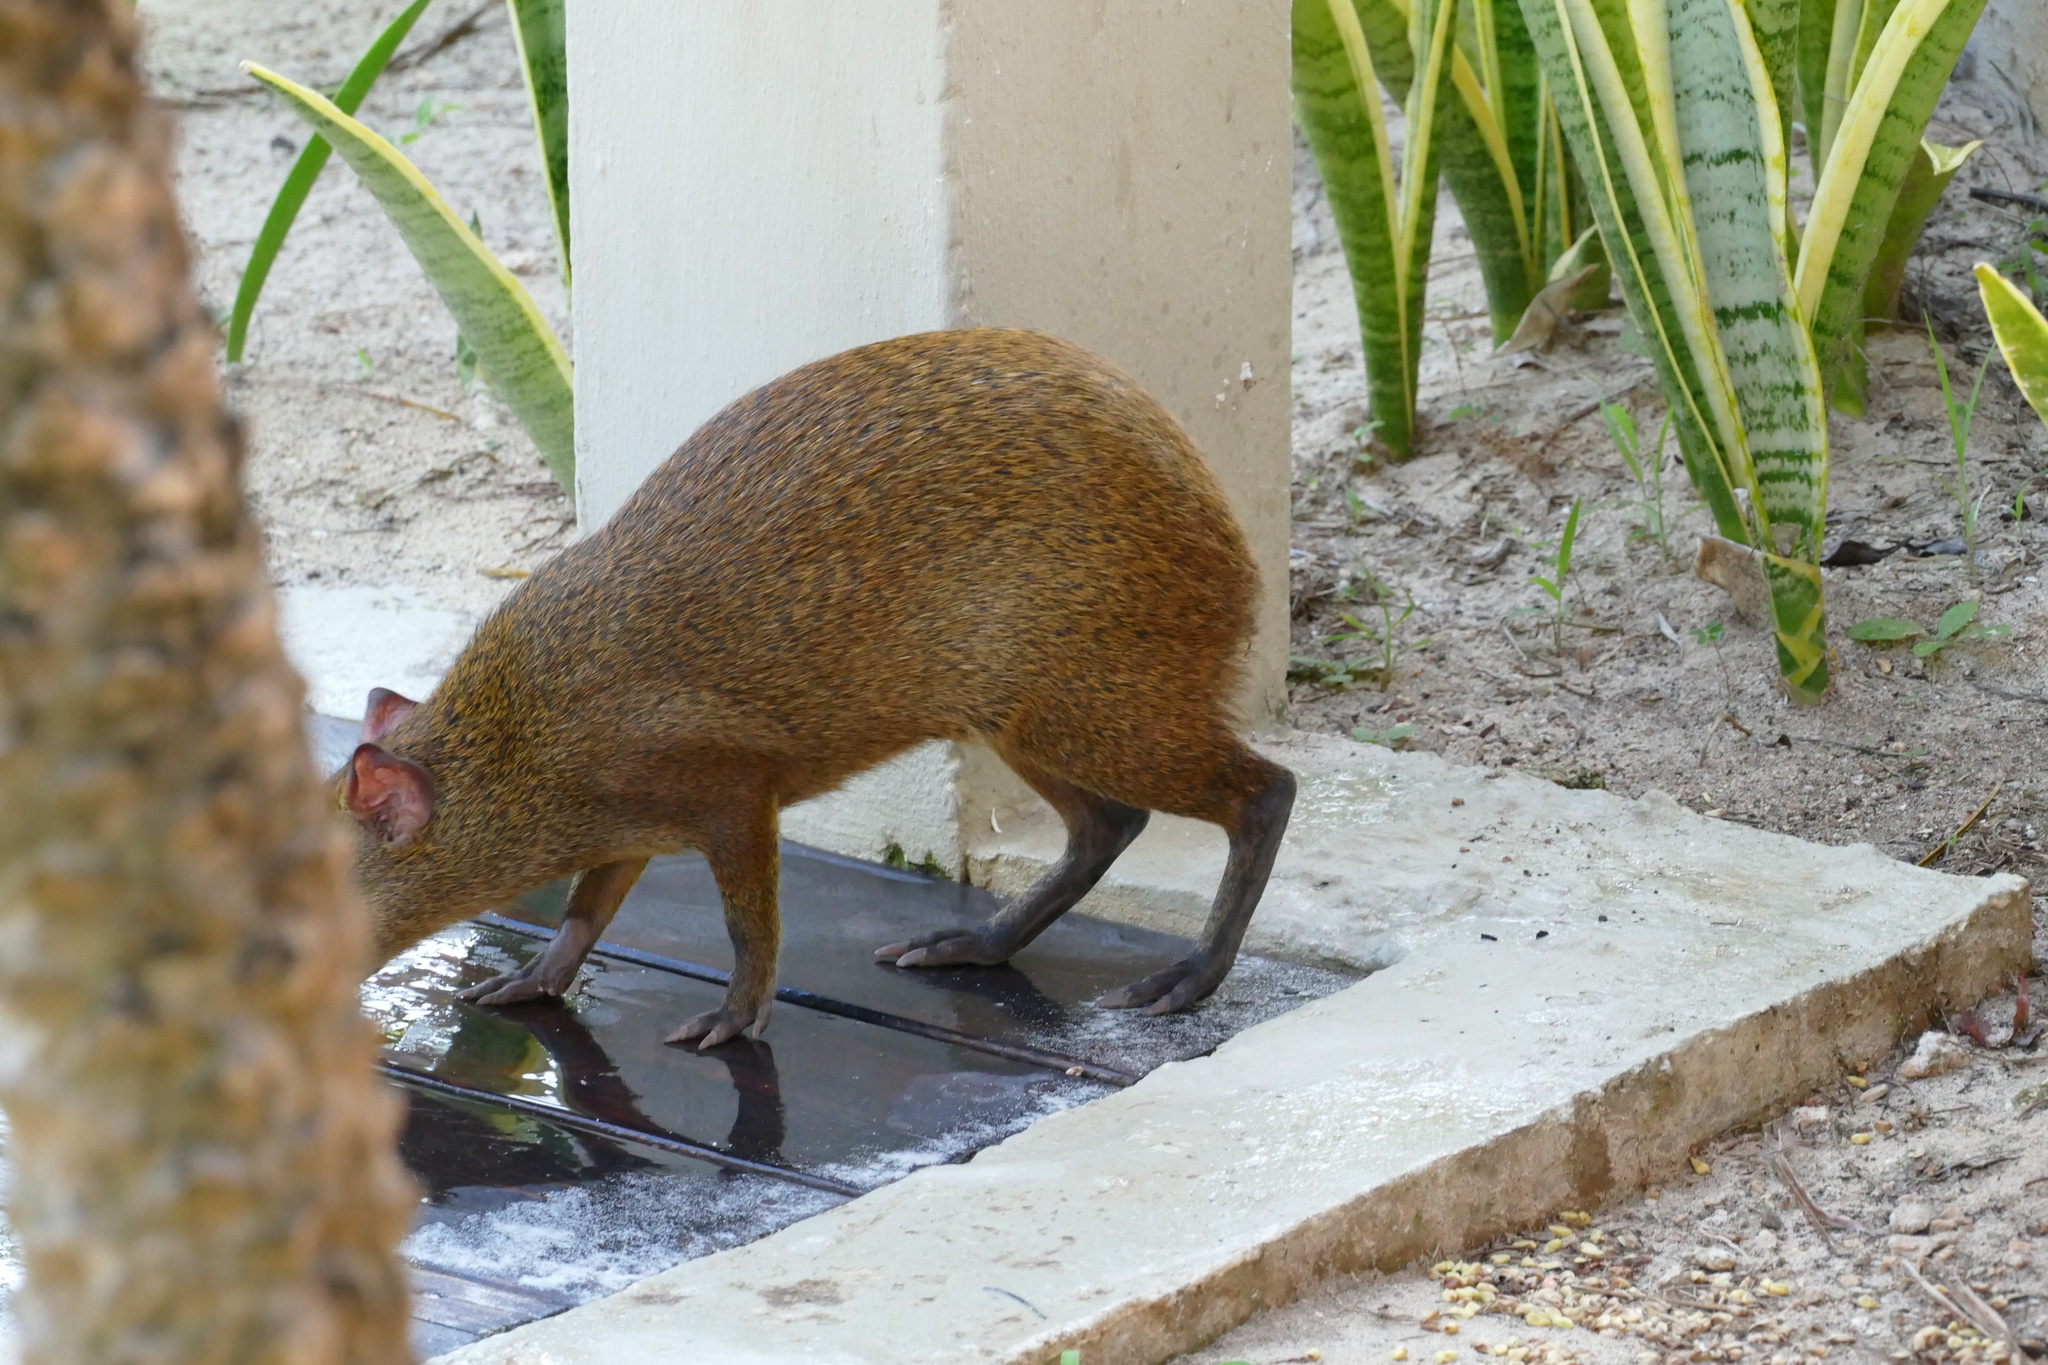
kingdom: Animalia
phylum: Chordata
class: Mammalia
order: Rodentia
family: Dasyproctidae
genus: Dasyprocta
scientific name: Dasyprocta punctata
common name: Central american agouti
